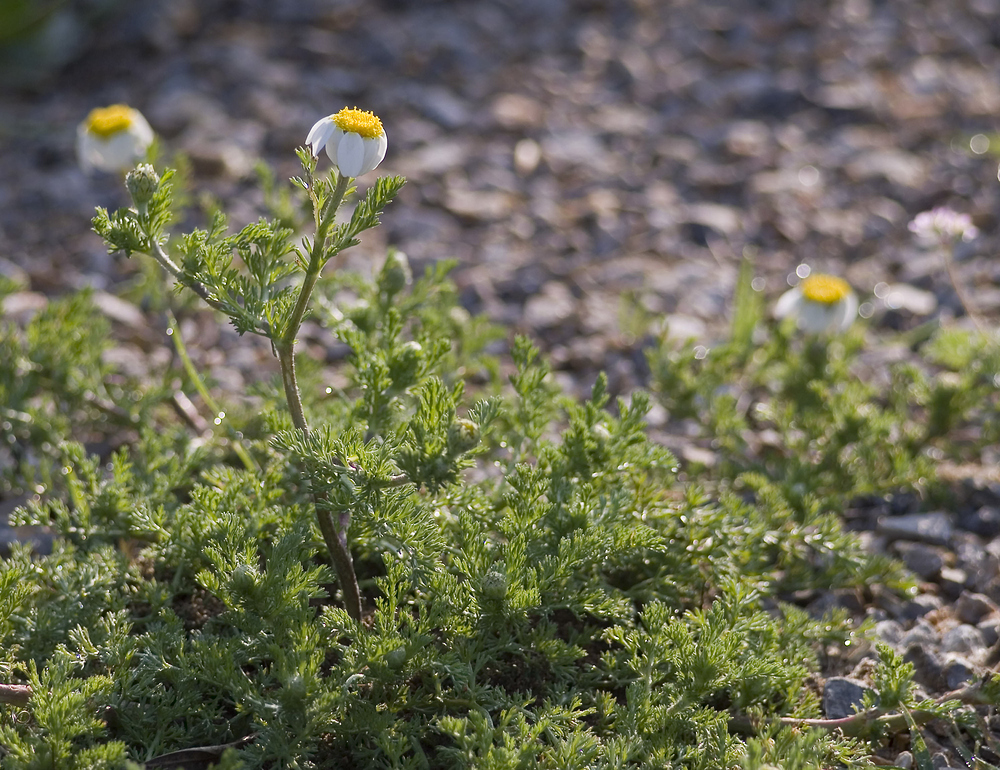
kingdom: Plantae
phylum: Tracheophyta
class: Magnoliopsida
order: Asterales
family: Asteraceae
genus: Anthemis
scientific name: Anthemis maritima
